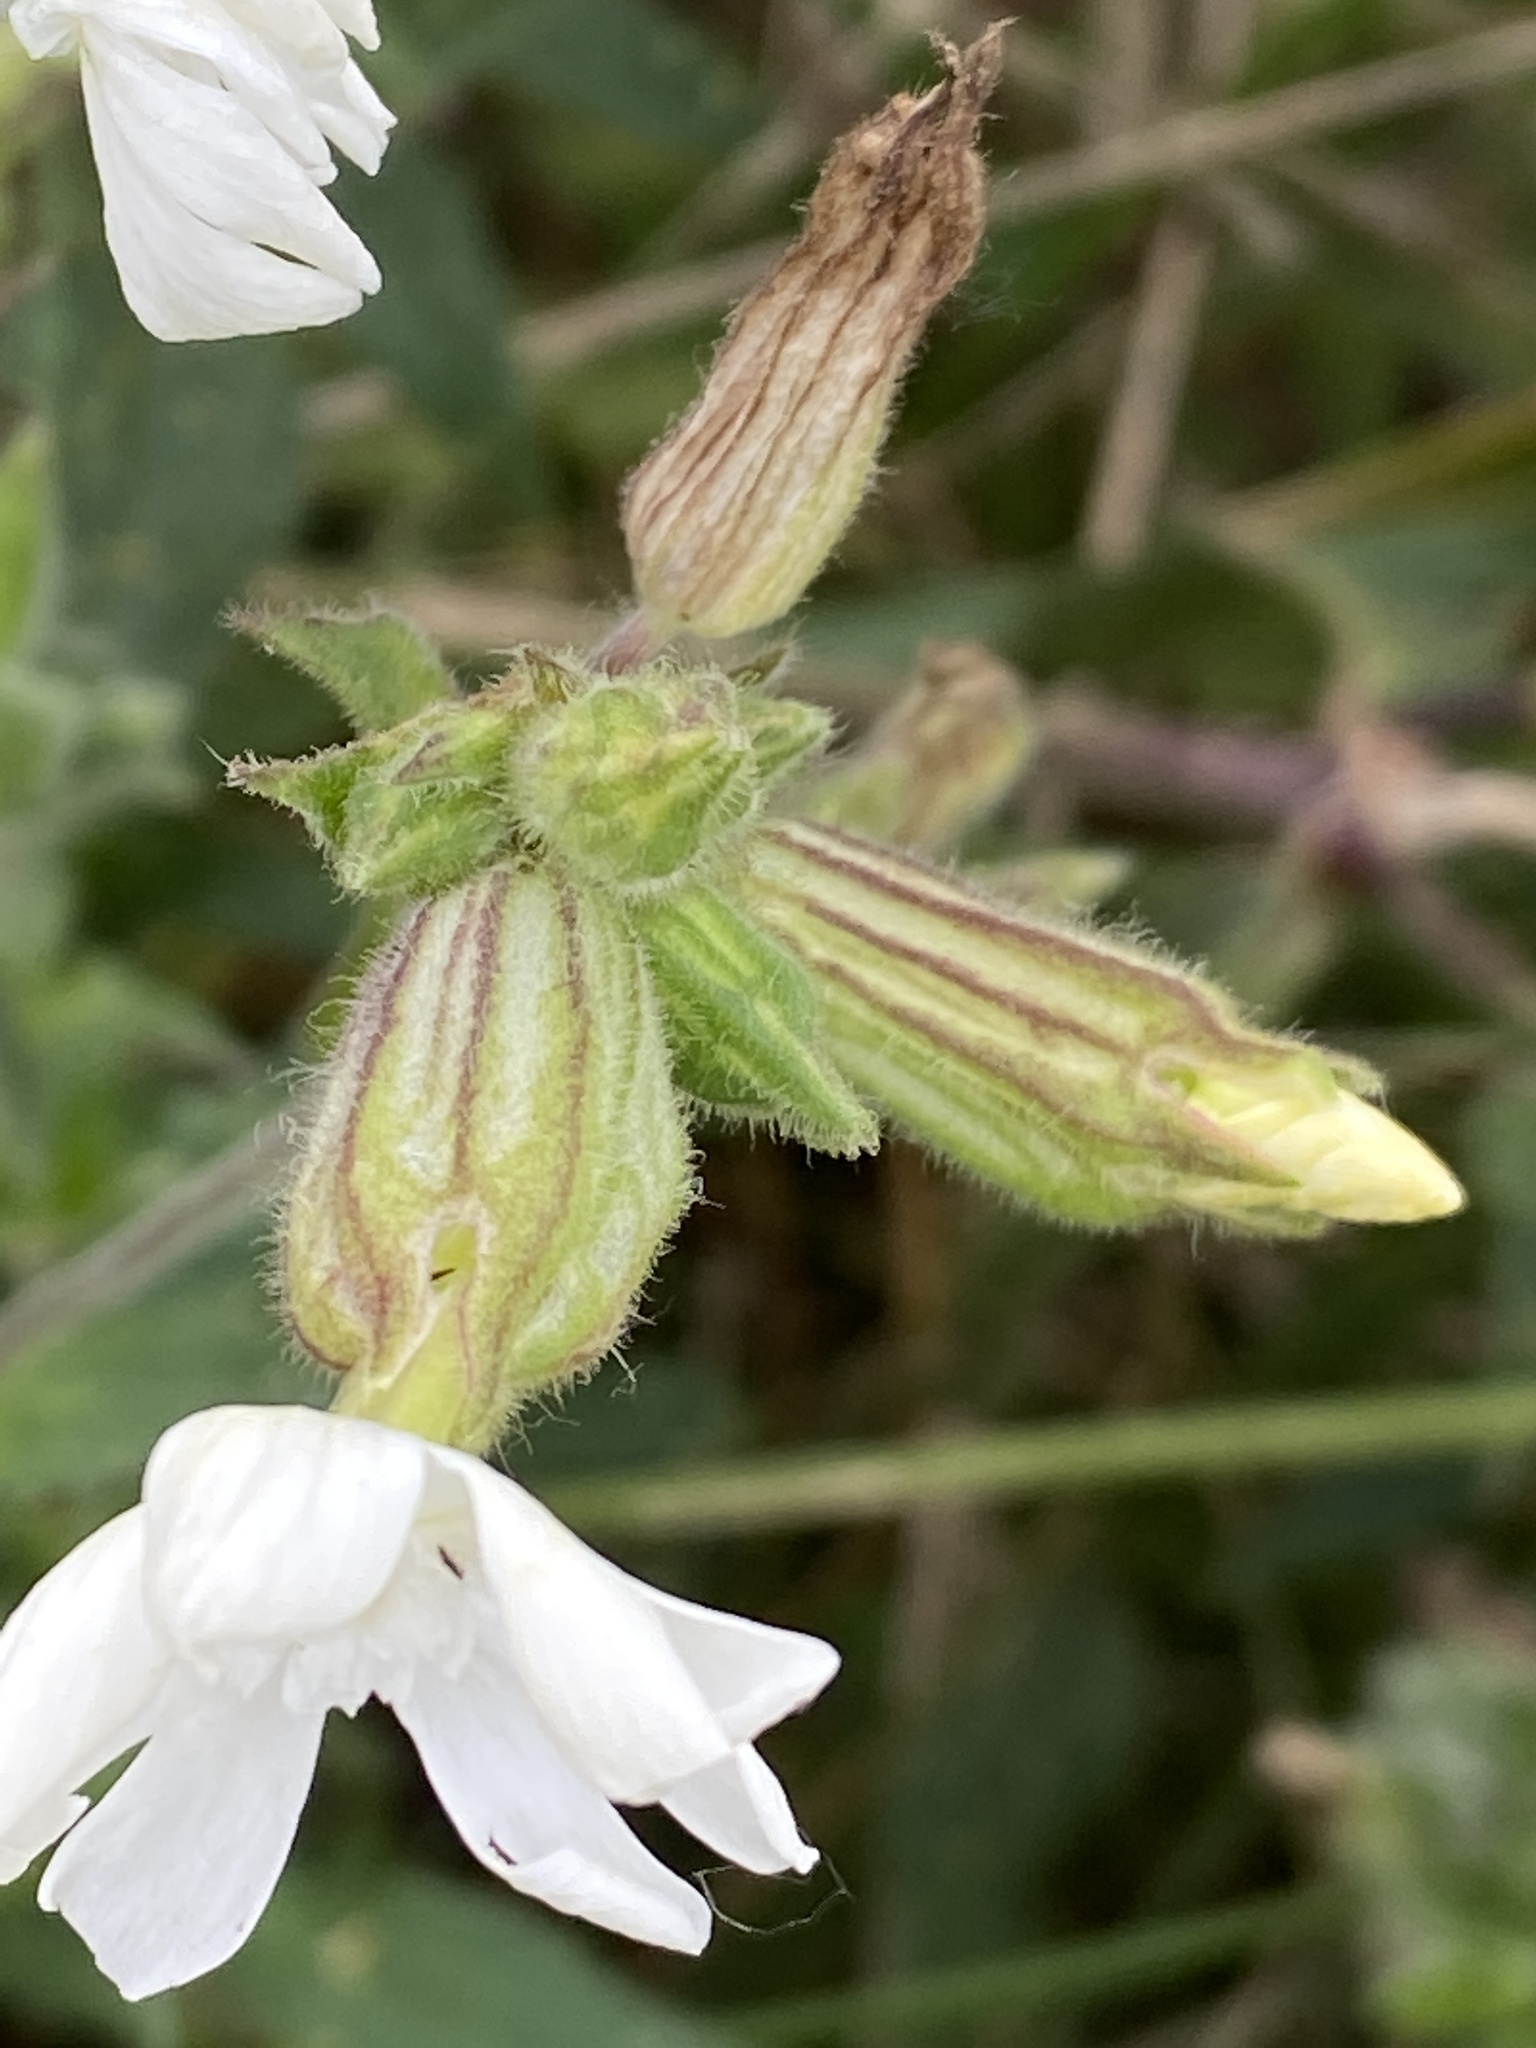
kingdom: Plantae
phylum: Tracheophyta
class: Magnoliopsida
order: Caryophyllales
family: Caryophyllaceae
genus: Silene
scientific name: Silene latifolia
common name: White campion
